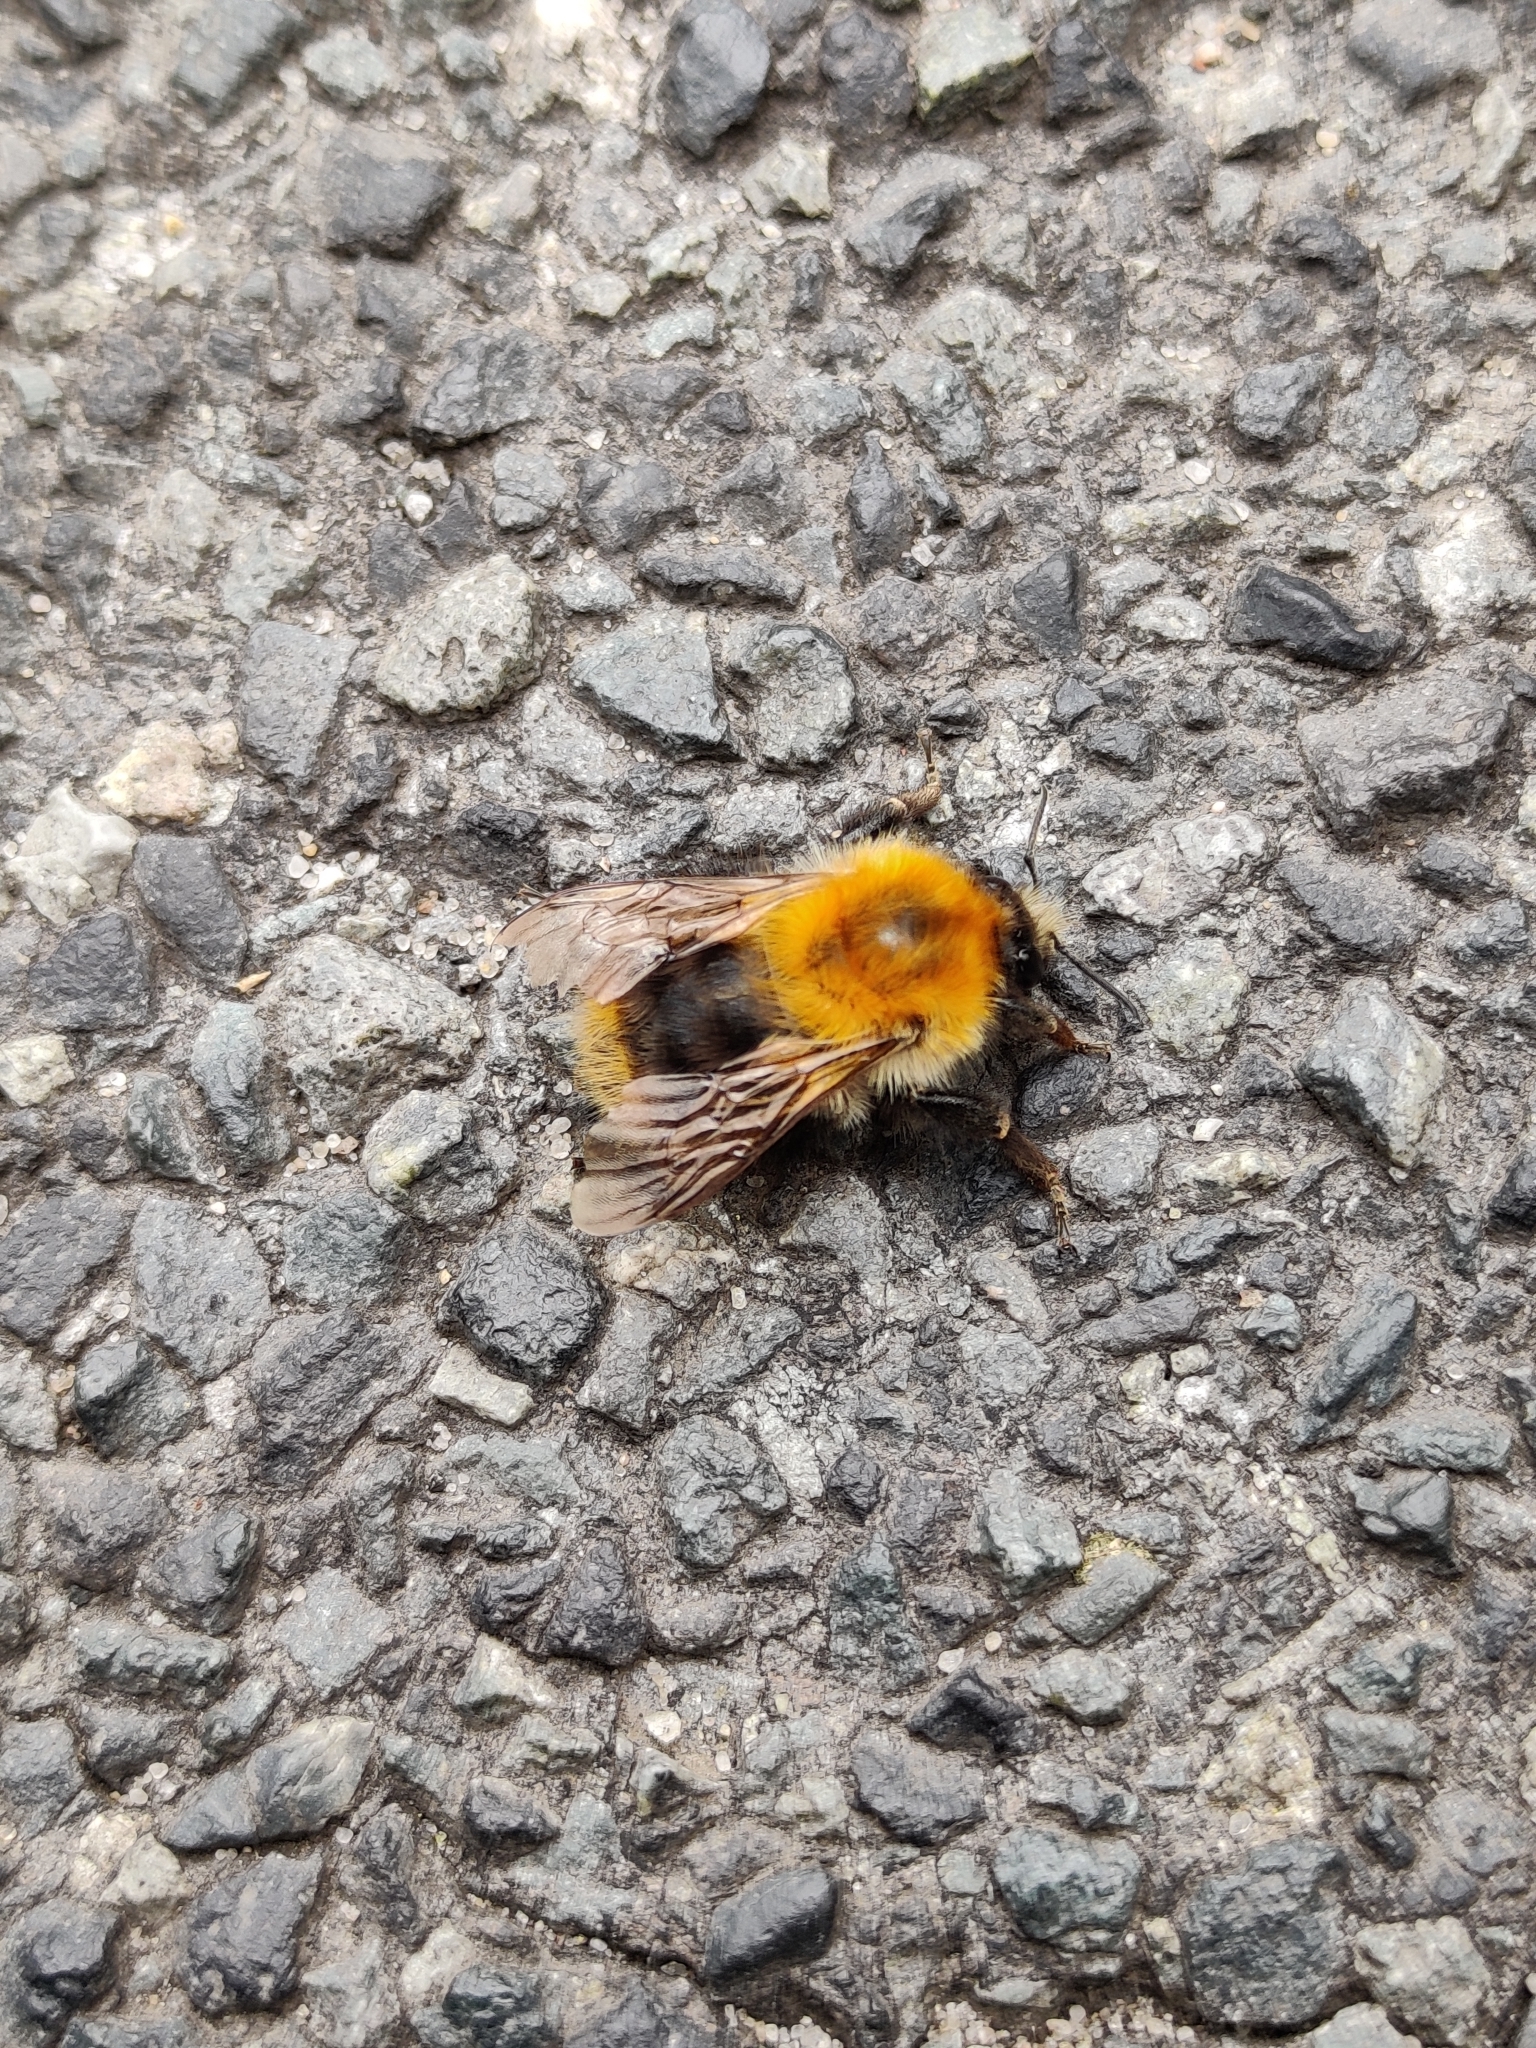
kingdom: Animalia
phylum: Arthropoda
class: Insecta
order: Hymenoptera
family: Apidae
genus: Bombus
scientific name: Bombus pascuorum
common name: Common carder bee
